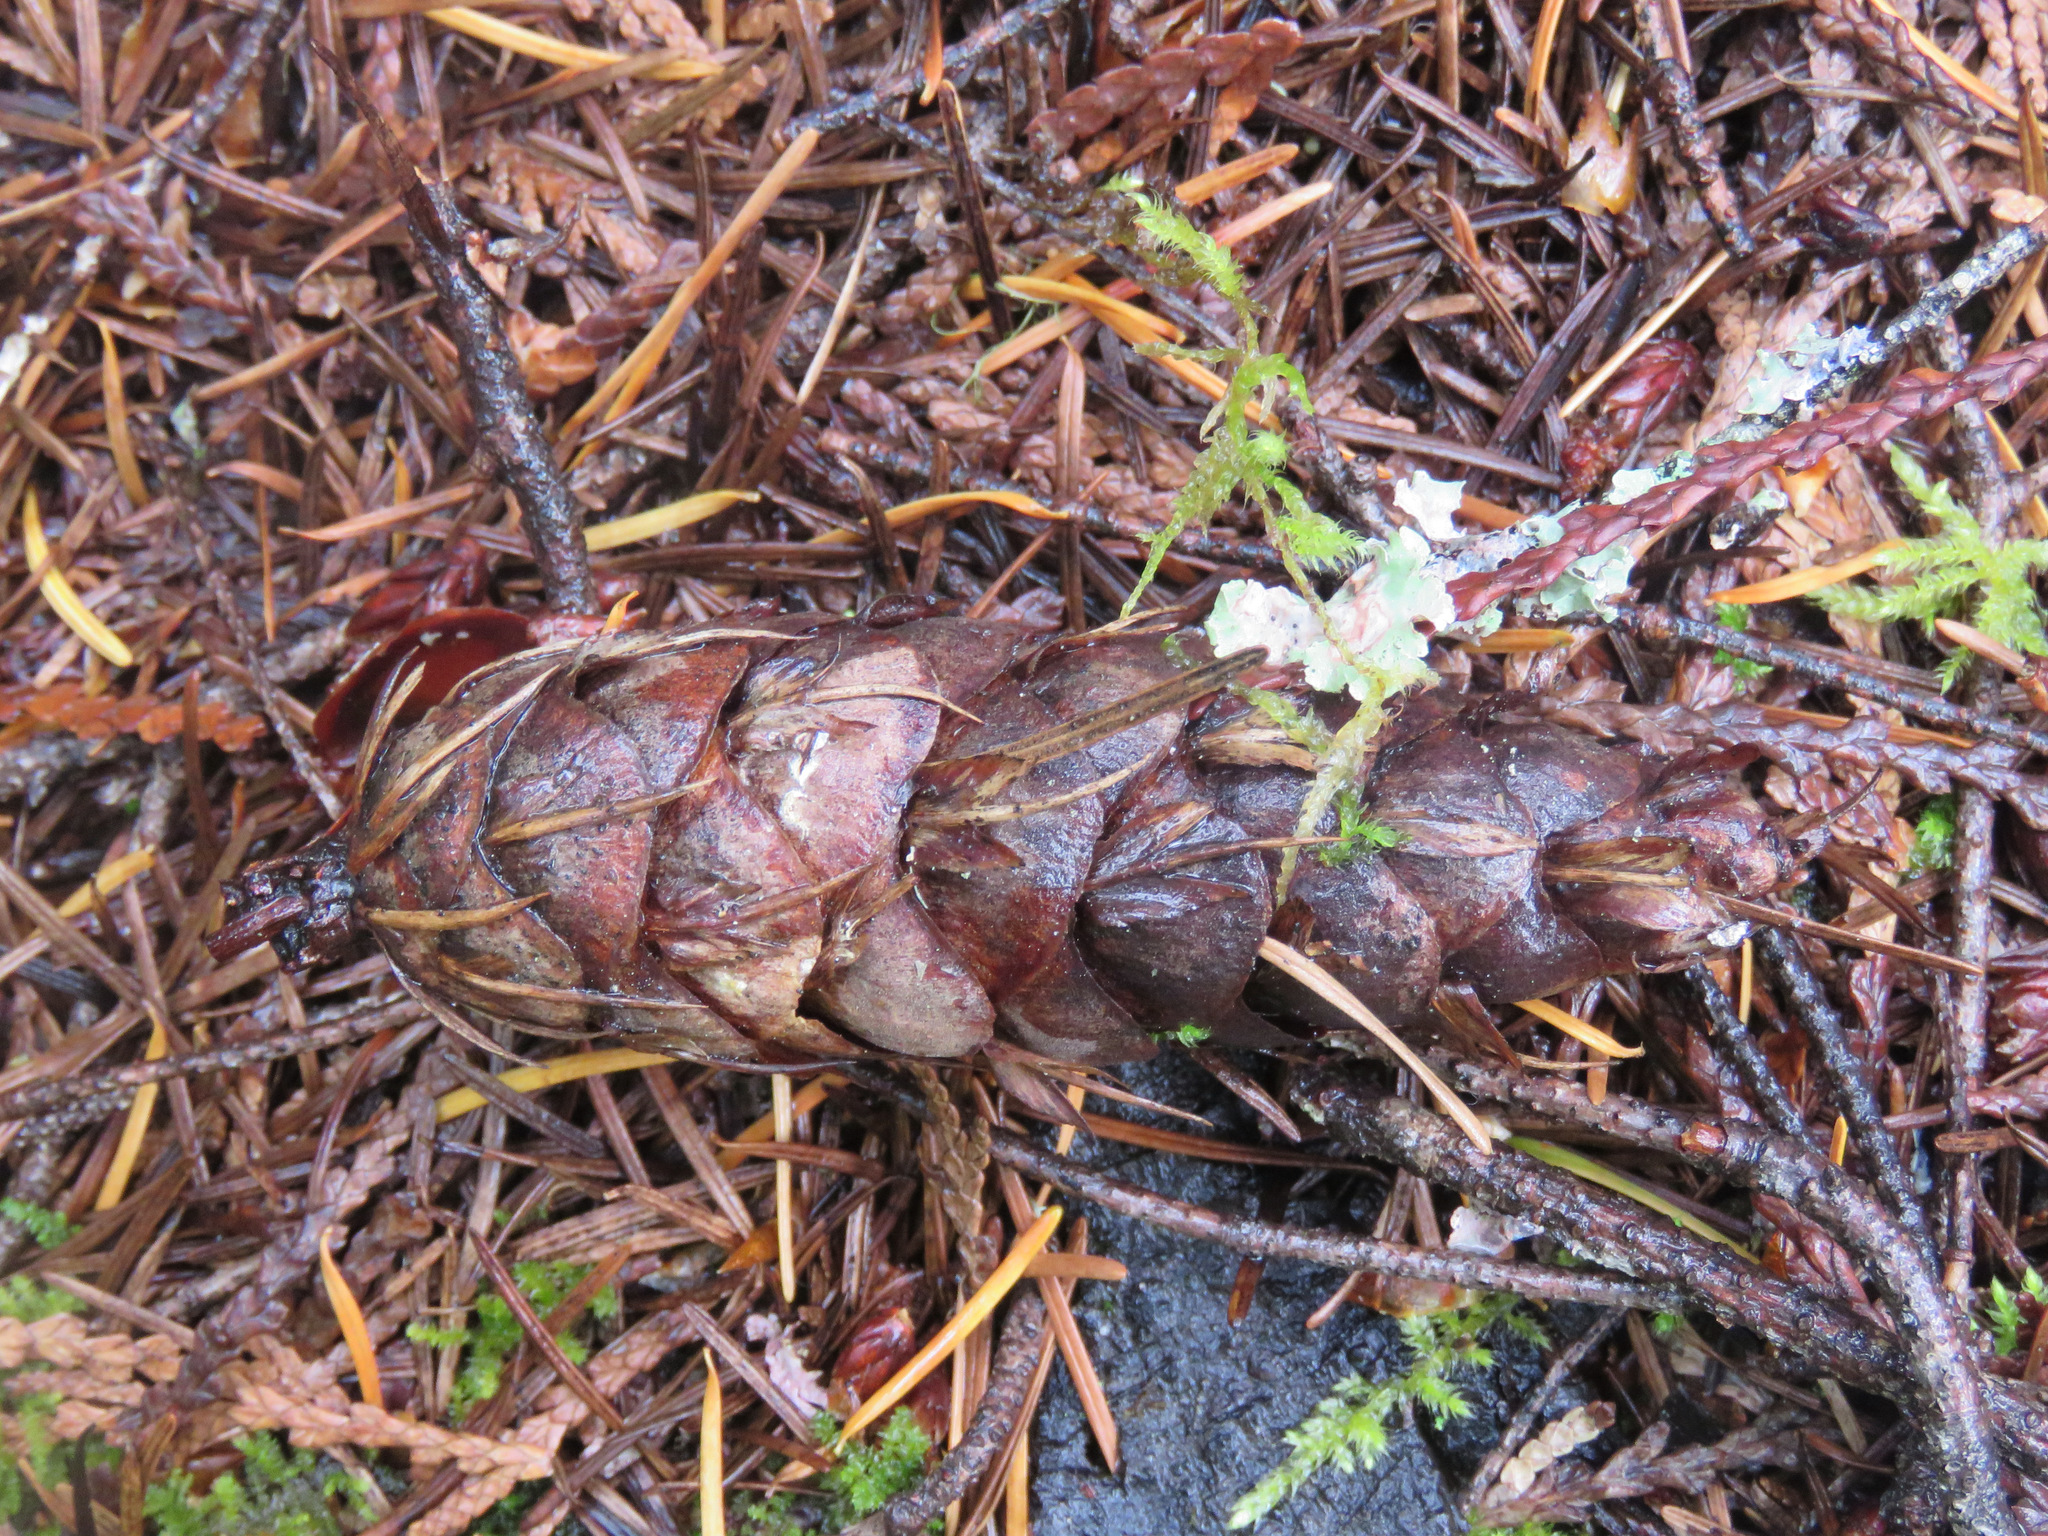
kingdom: Plantae
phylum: Tracheophyta
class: Pinopsida
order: Pinales
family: Pinaceae
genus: Pseudotsuga
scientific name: Pseudotsuga menziesii
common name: Douglas fir
